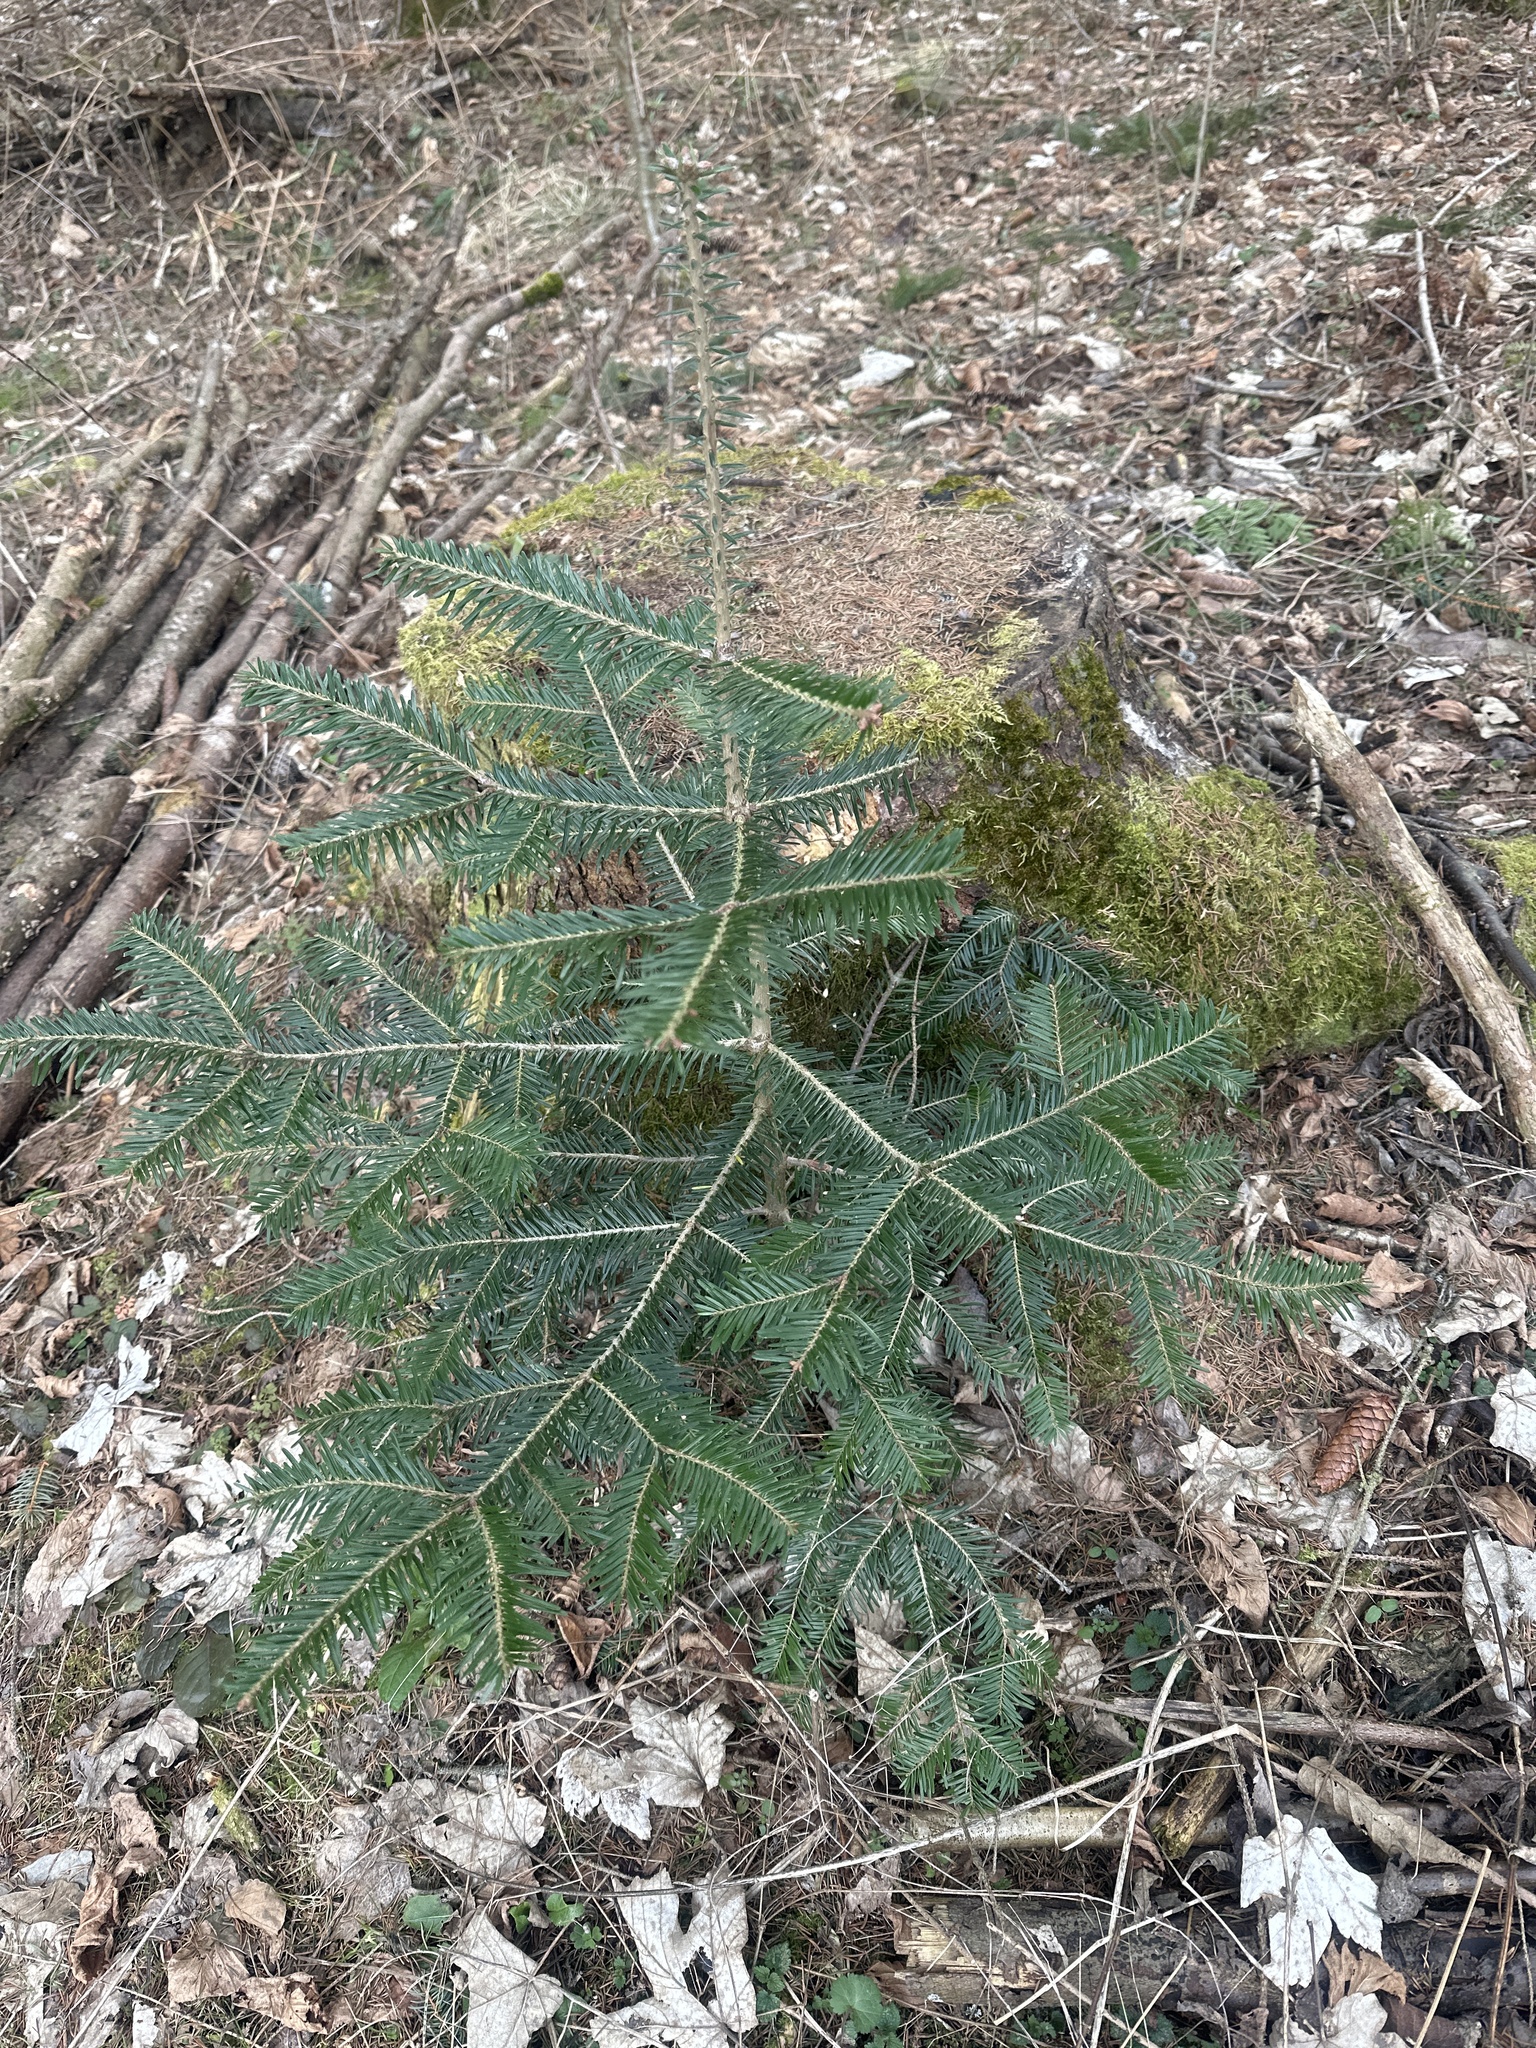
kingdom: Plantae
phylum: Tracheophyta
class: Pinopsida
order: Pinales
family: Pinaceae
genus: Abies
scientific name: Abies alba
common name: Silver fir
